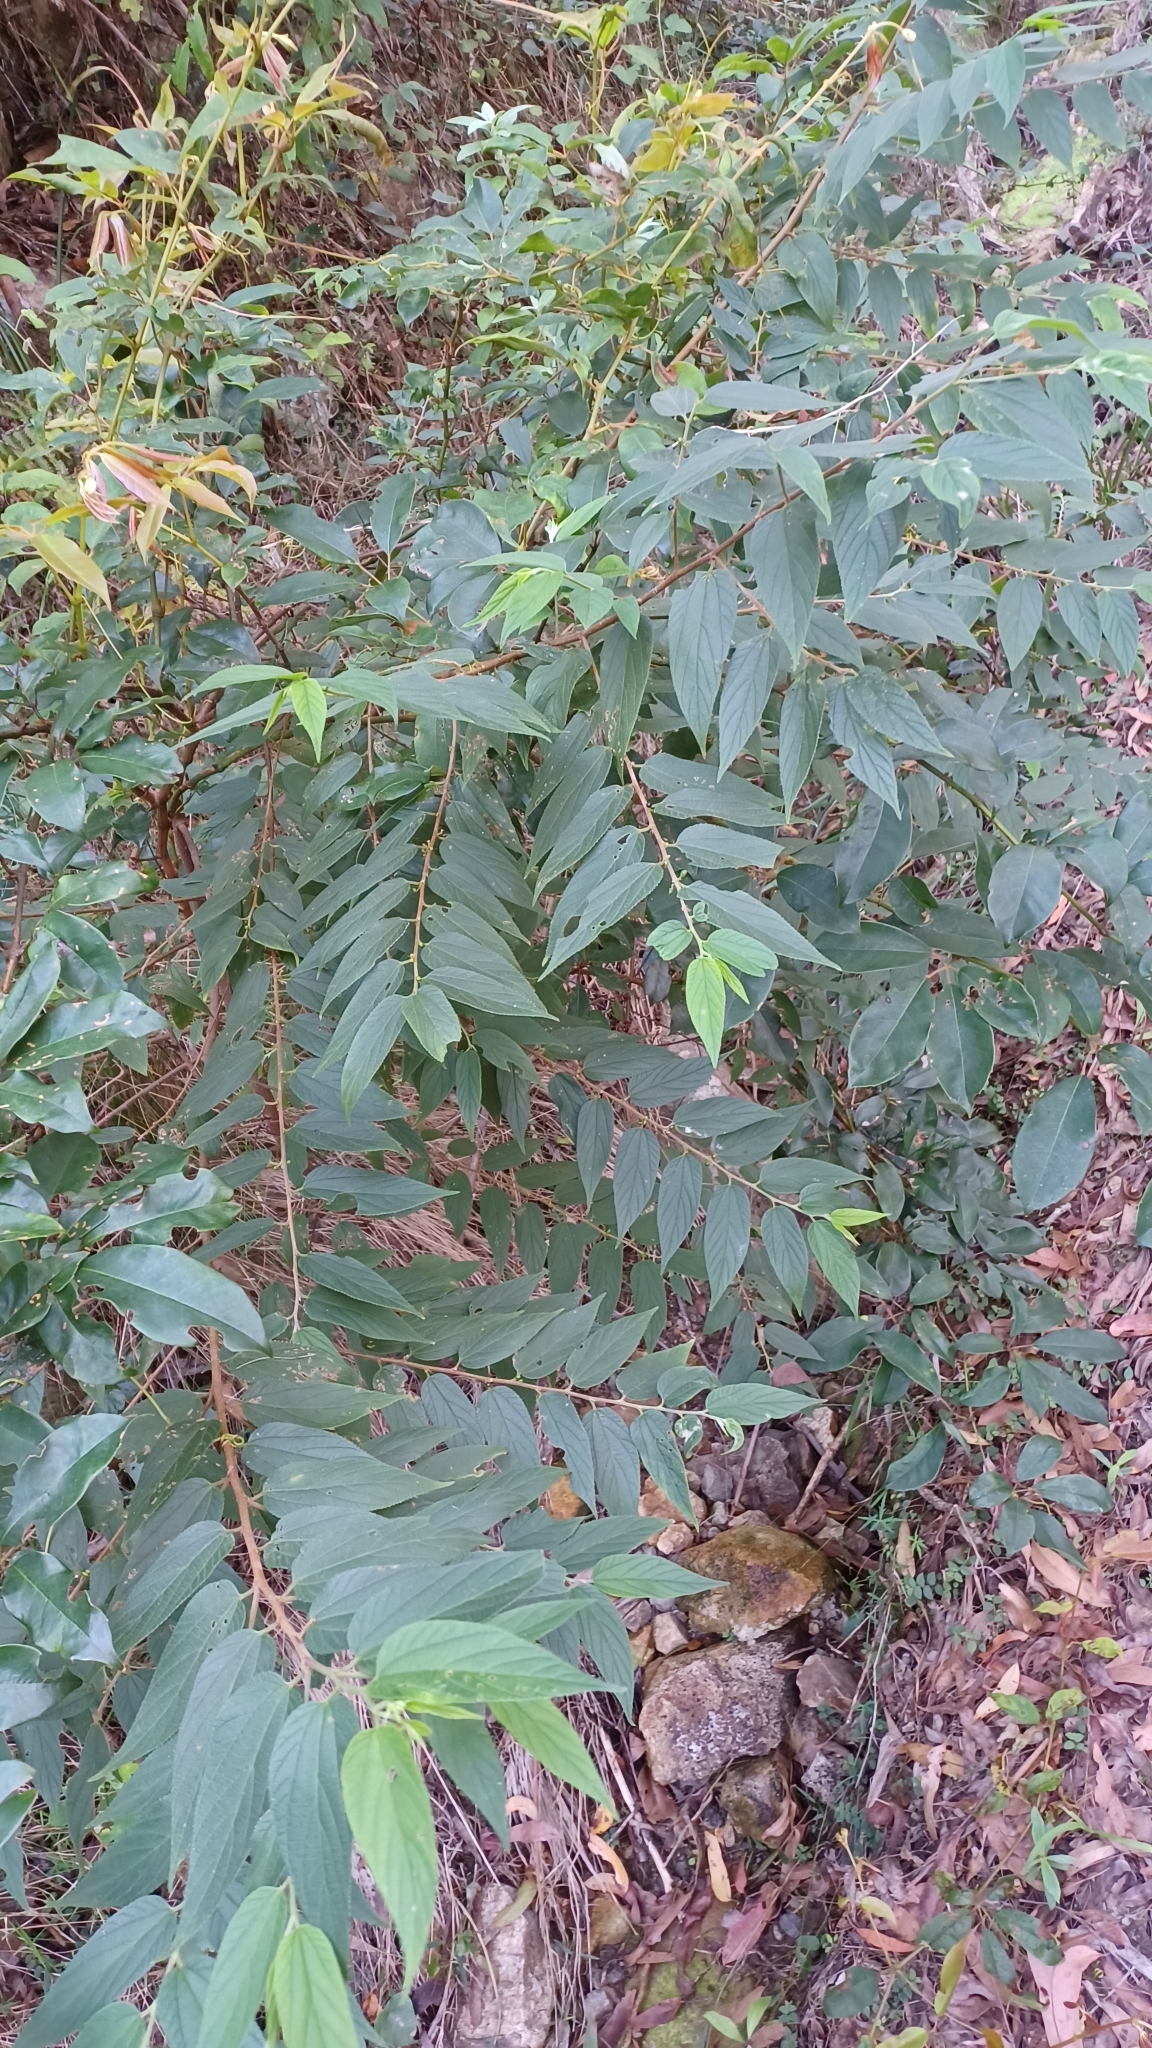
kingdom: Plantae
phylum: Tracheophyta
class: Magnoliopsida
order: Rosales
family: Cannabaceae
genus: Trema
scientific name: Trema tomentosum
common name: Peach-leaf-poisonbush
